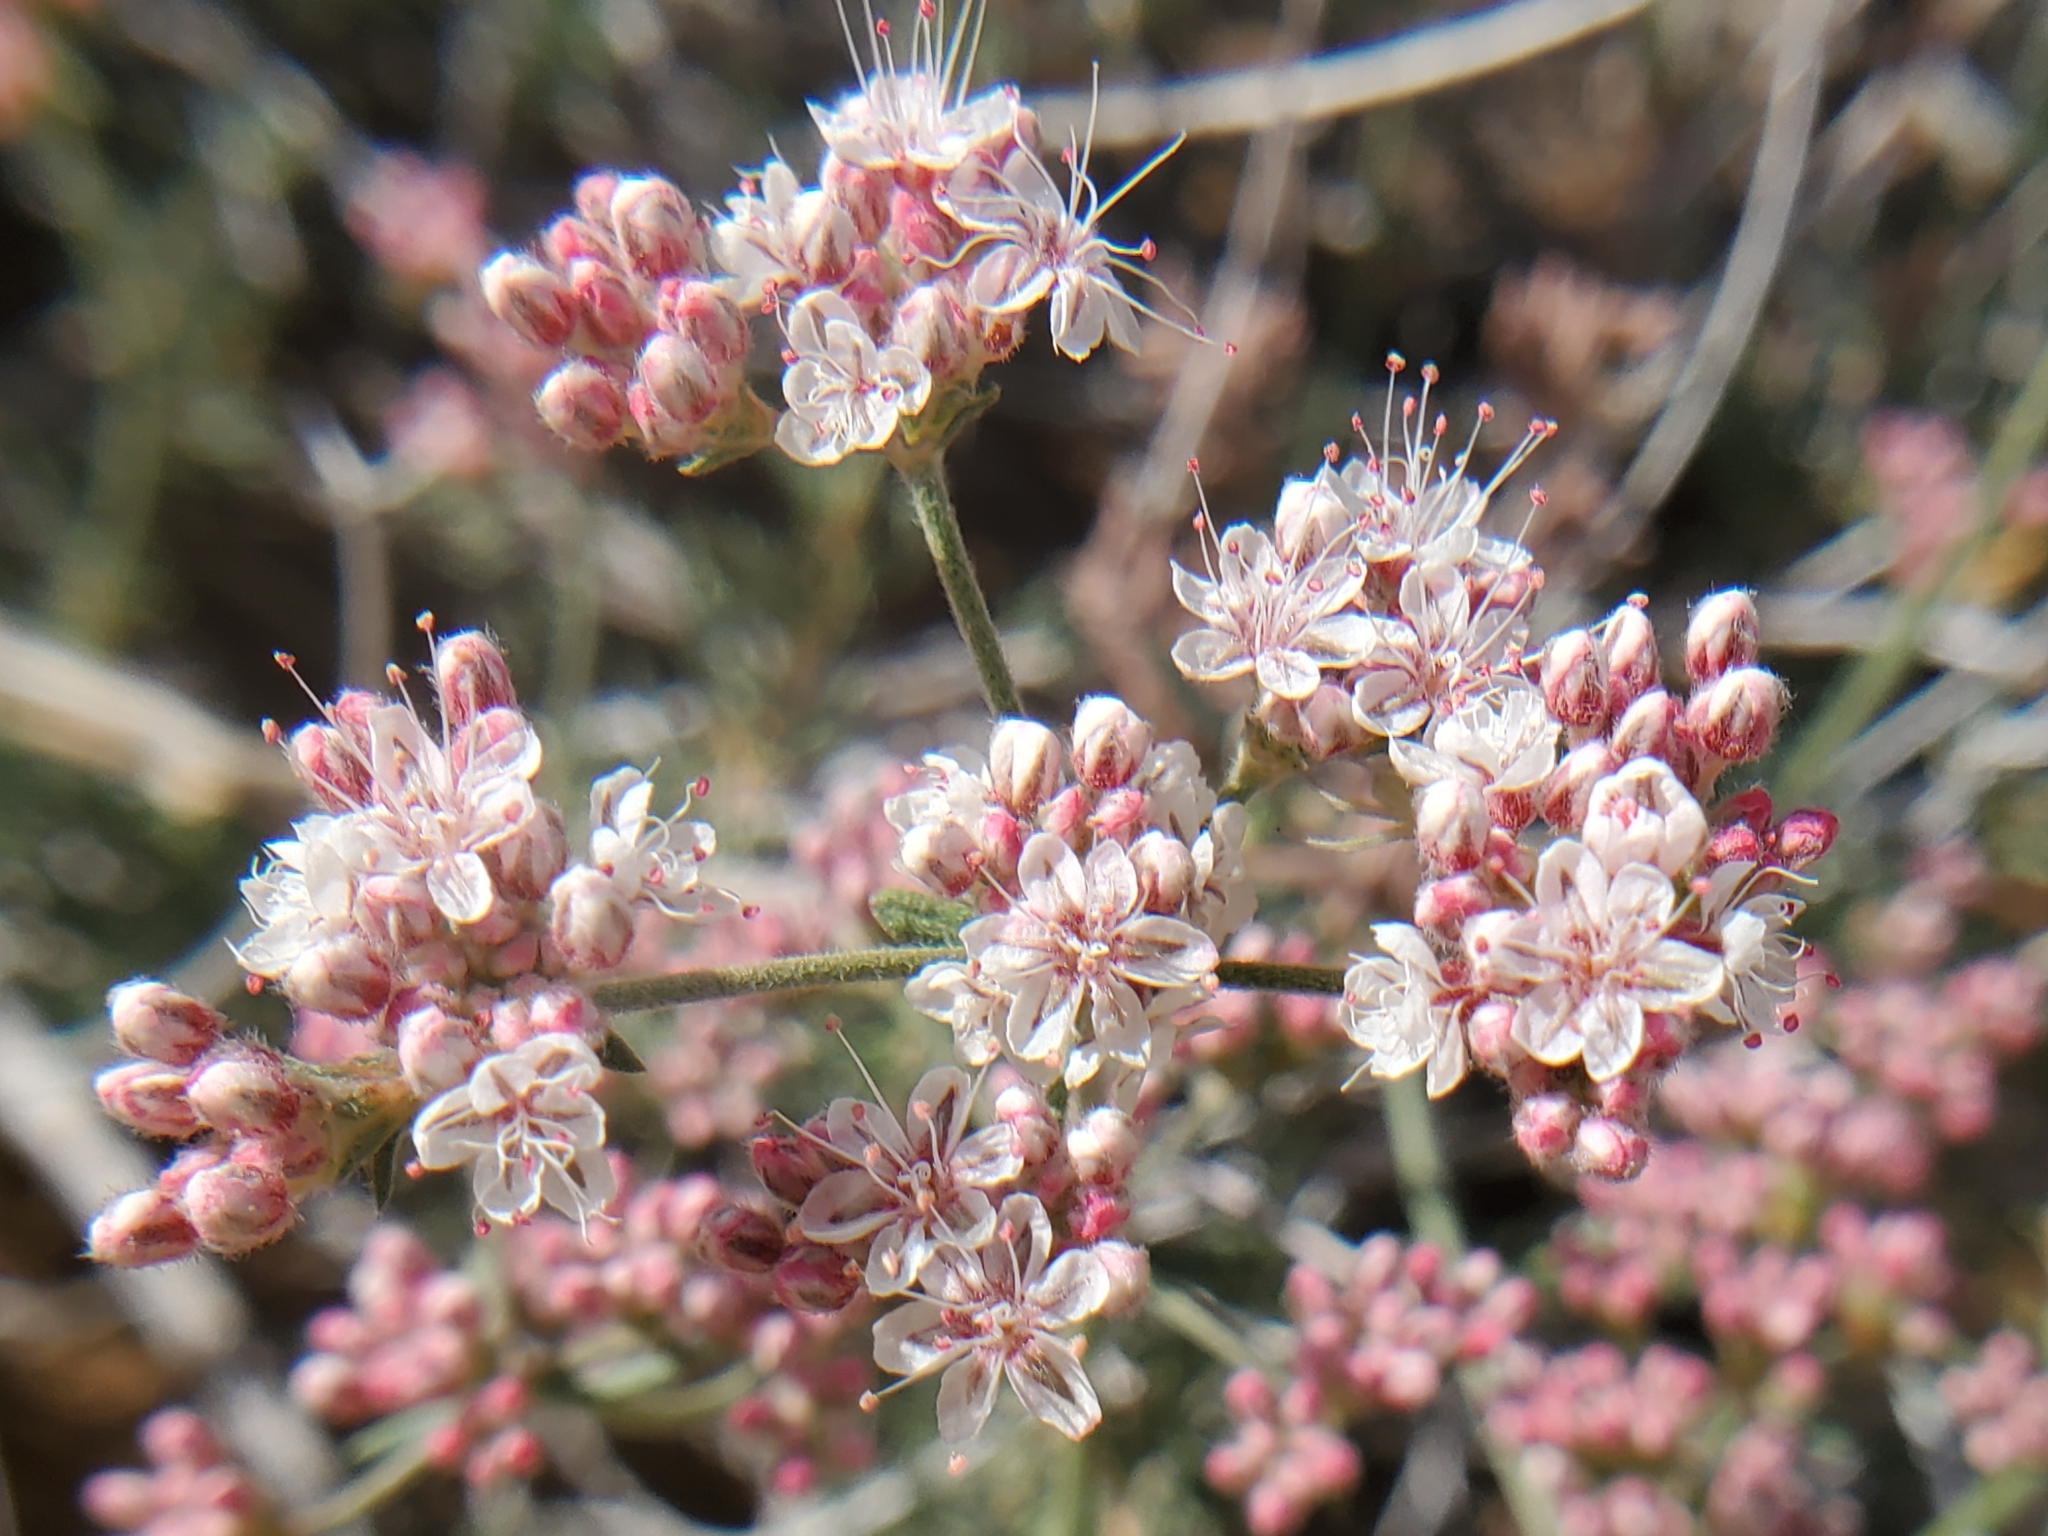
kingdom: Plantae
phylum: Tracheophyta
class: Magnoliopsida
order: Caryophyllales
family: Polygonaceae
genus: Eriogonum
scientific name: Eriogonum fasciculatum
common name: California wild buckwheat
